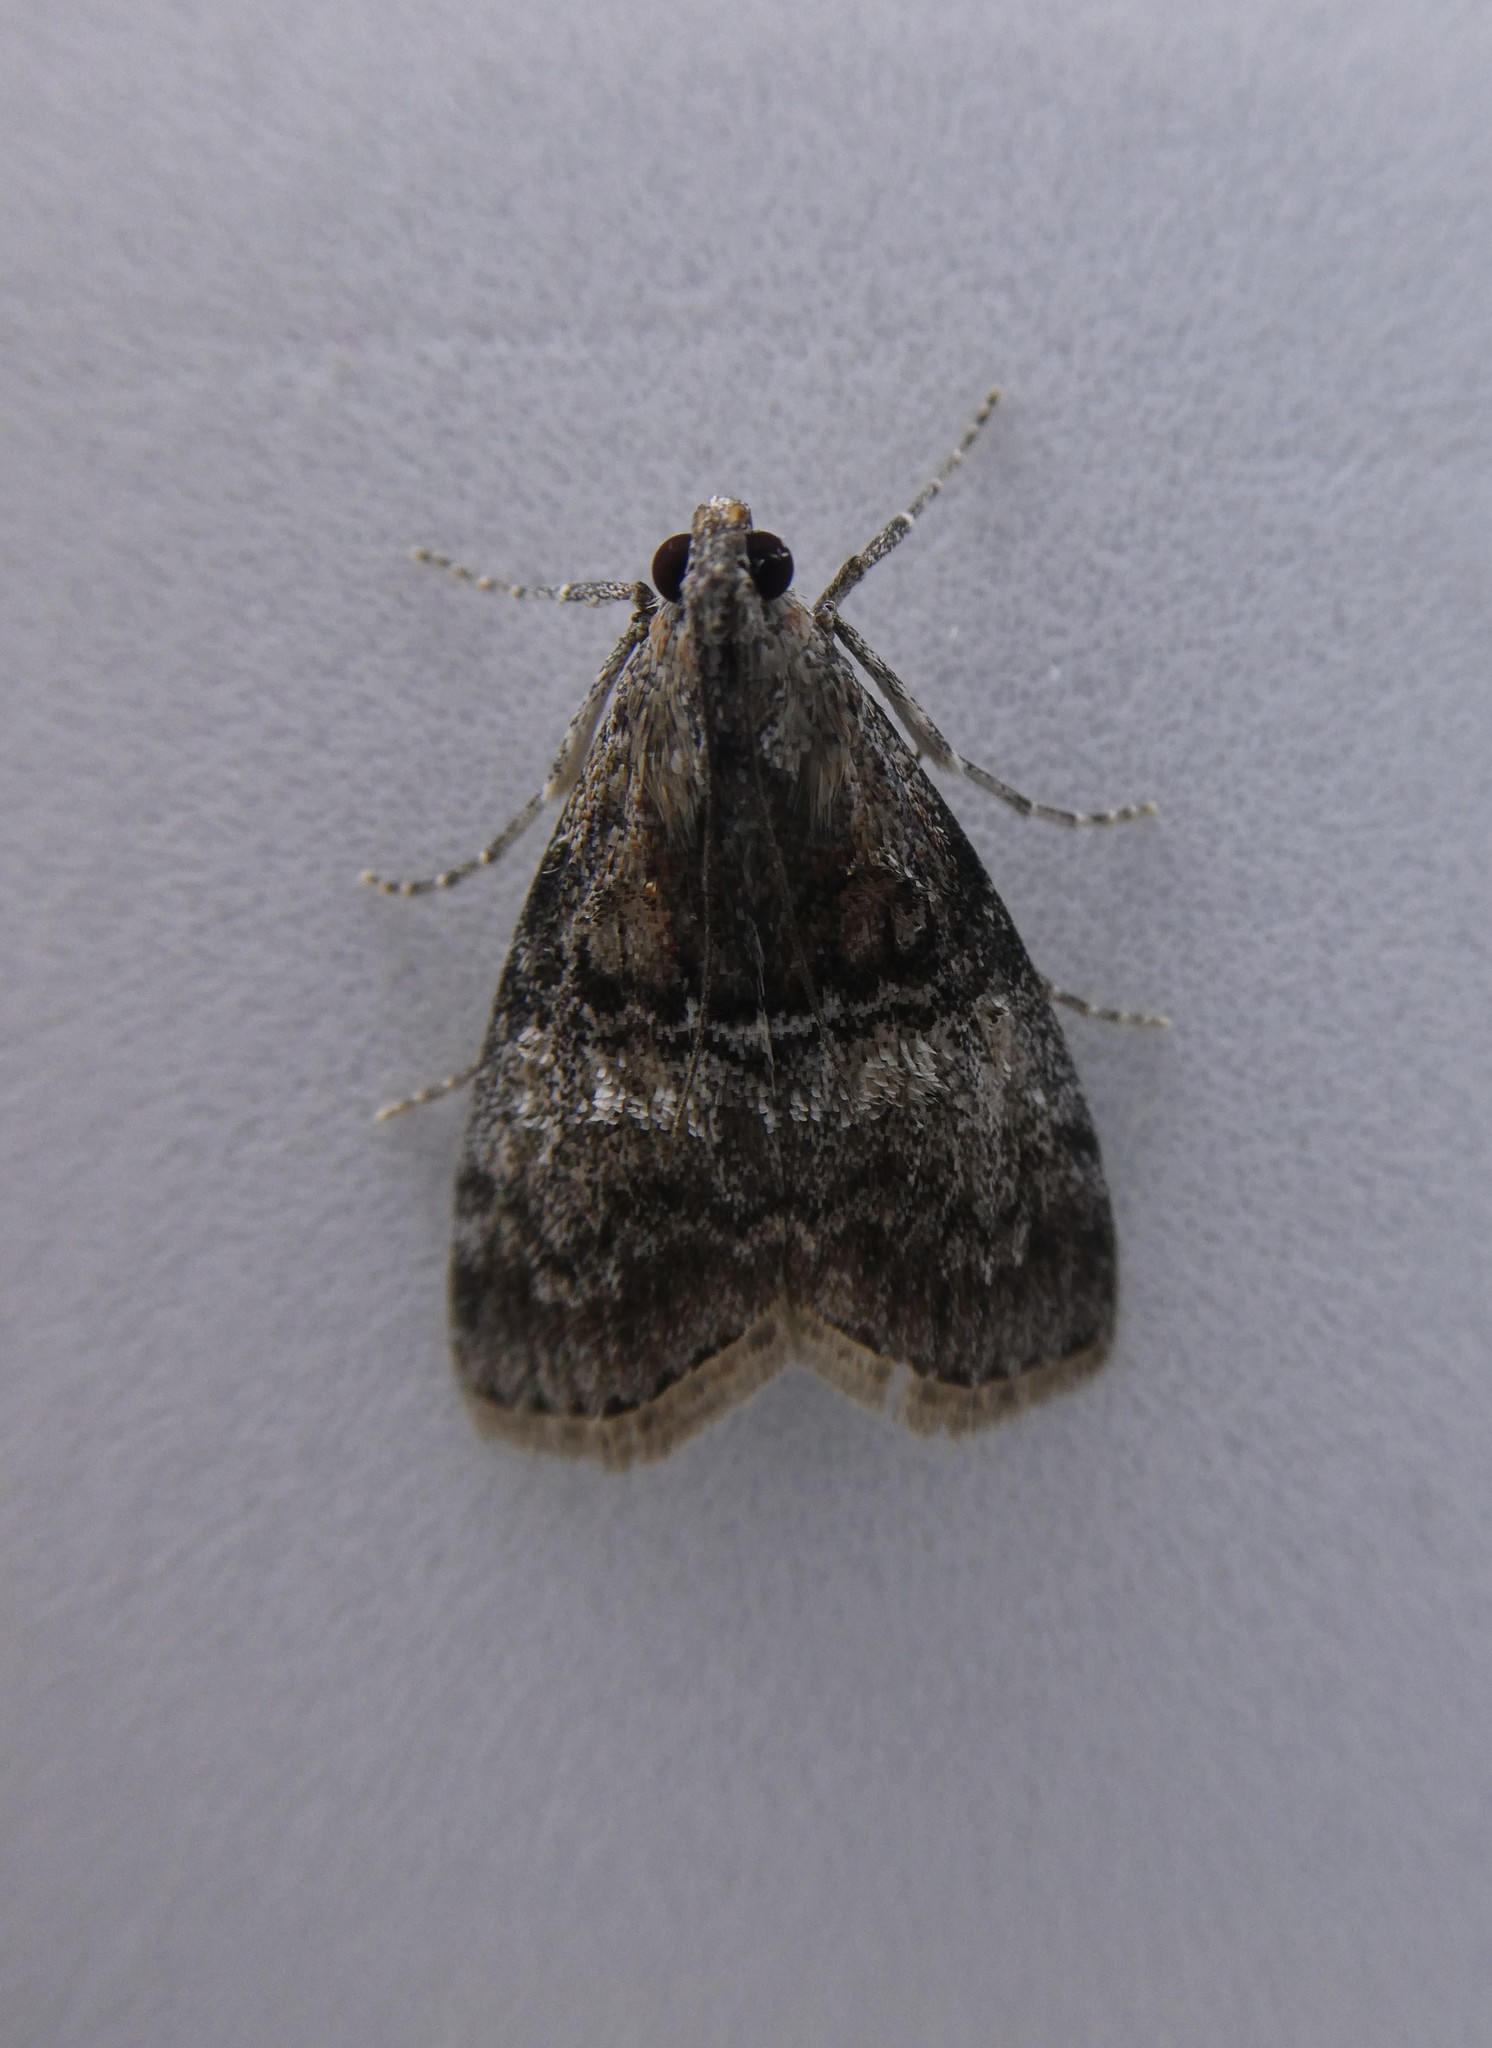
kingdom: Animalia
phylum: Arthropoda
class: Insecta
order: Lepidoptera
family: Pyralidae
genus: Pococera
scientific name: Pococera expandens
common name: Striped oak webworm moth
